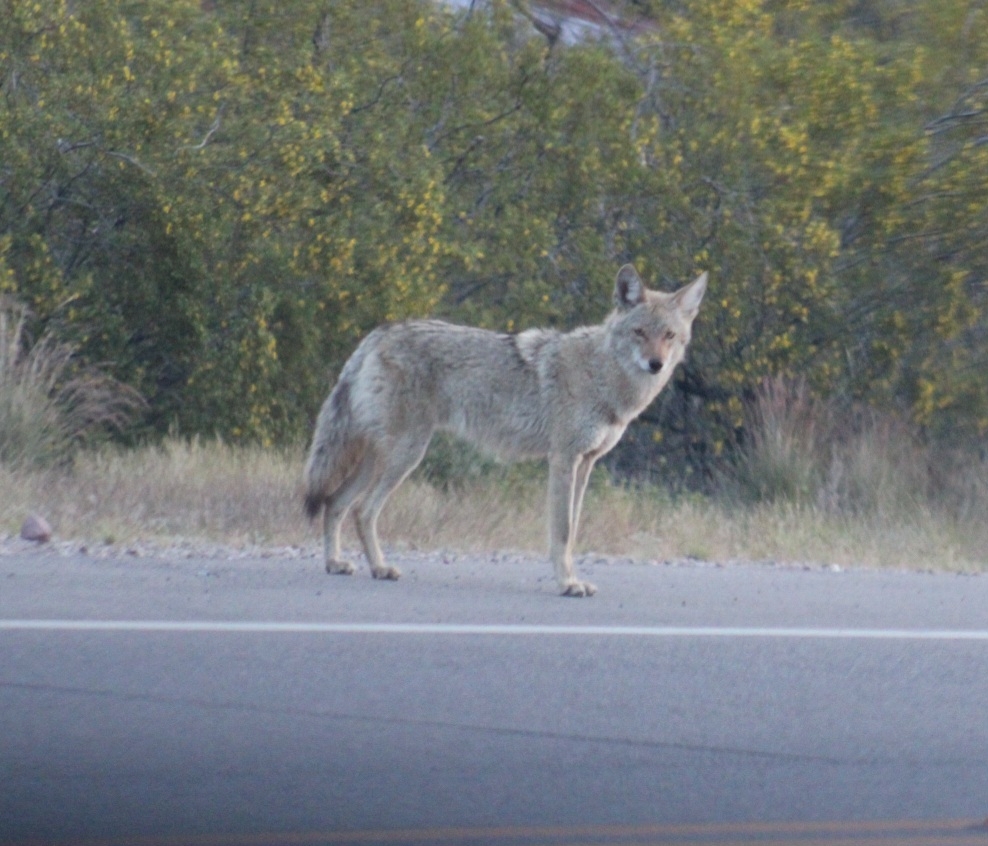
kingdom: Animalia
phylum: Chordata
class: Mammalia
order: Carnivora
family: Canidae
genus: Canis
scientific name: Canis latrans
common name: Coyote
